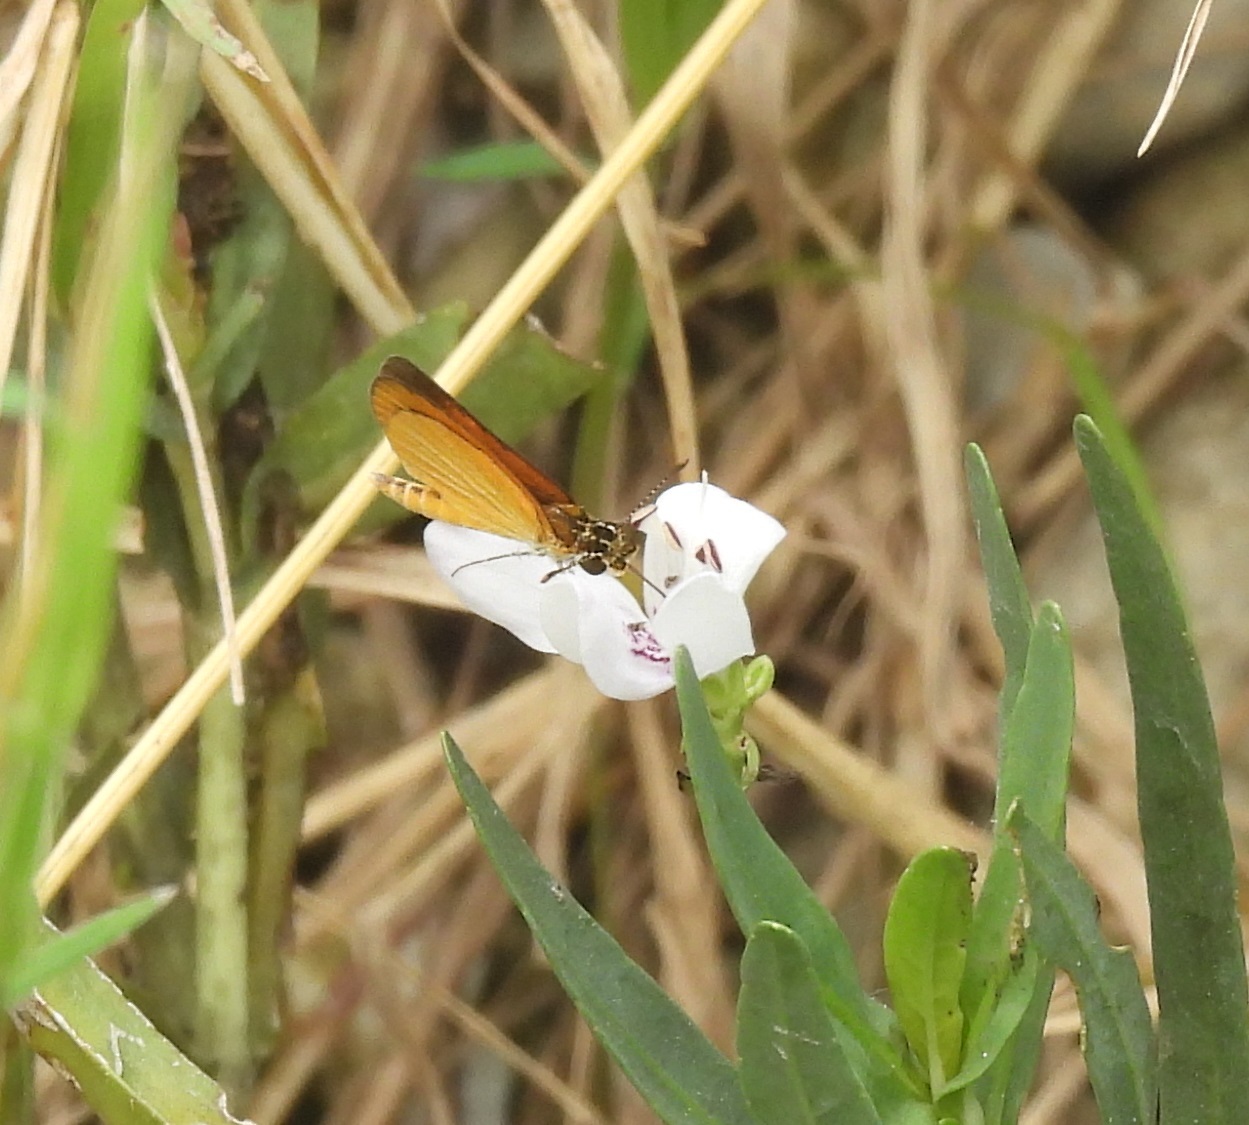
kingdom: Animalia
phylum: Arthropoda
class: Insecta
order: Lepidoptera
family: Hesperiidae
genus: Ancyloxypha
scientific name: Ancyloxypha numitor
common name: Least skipper
